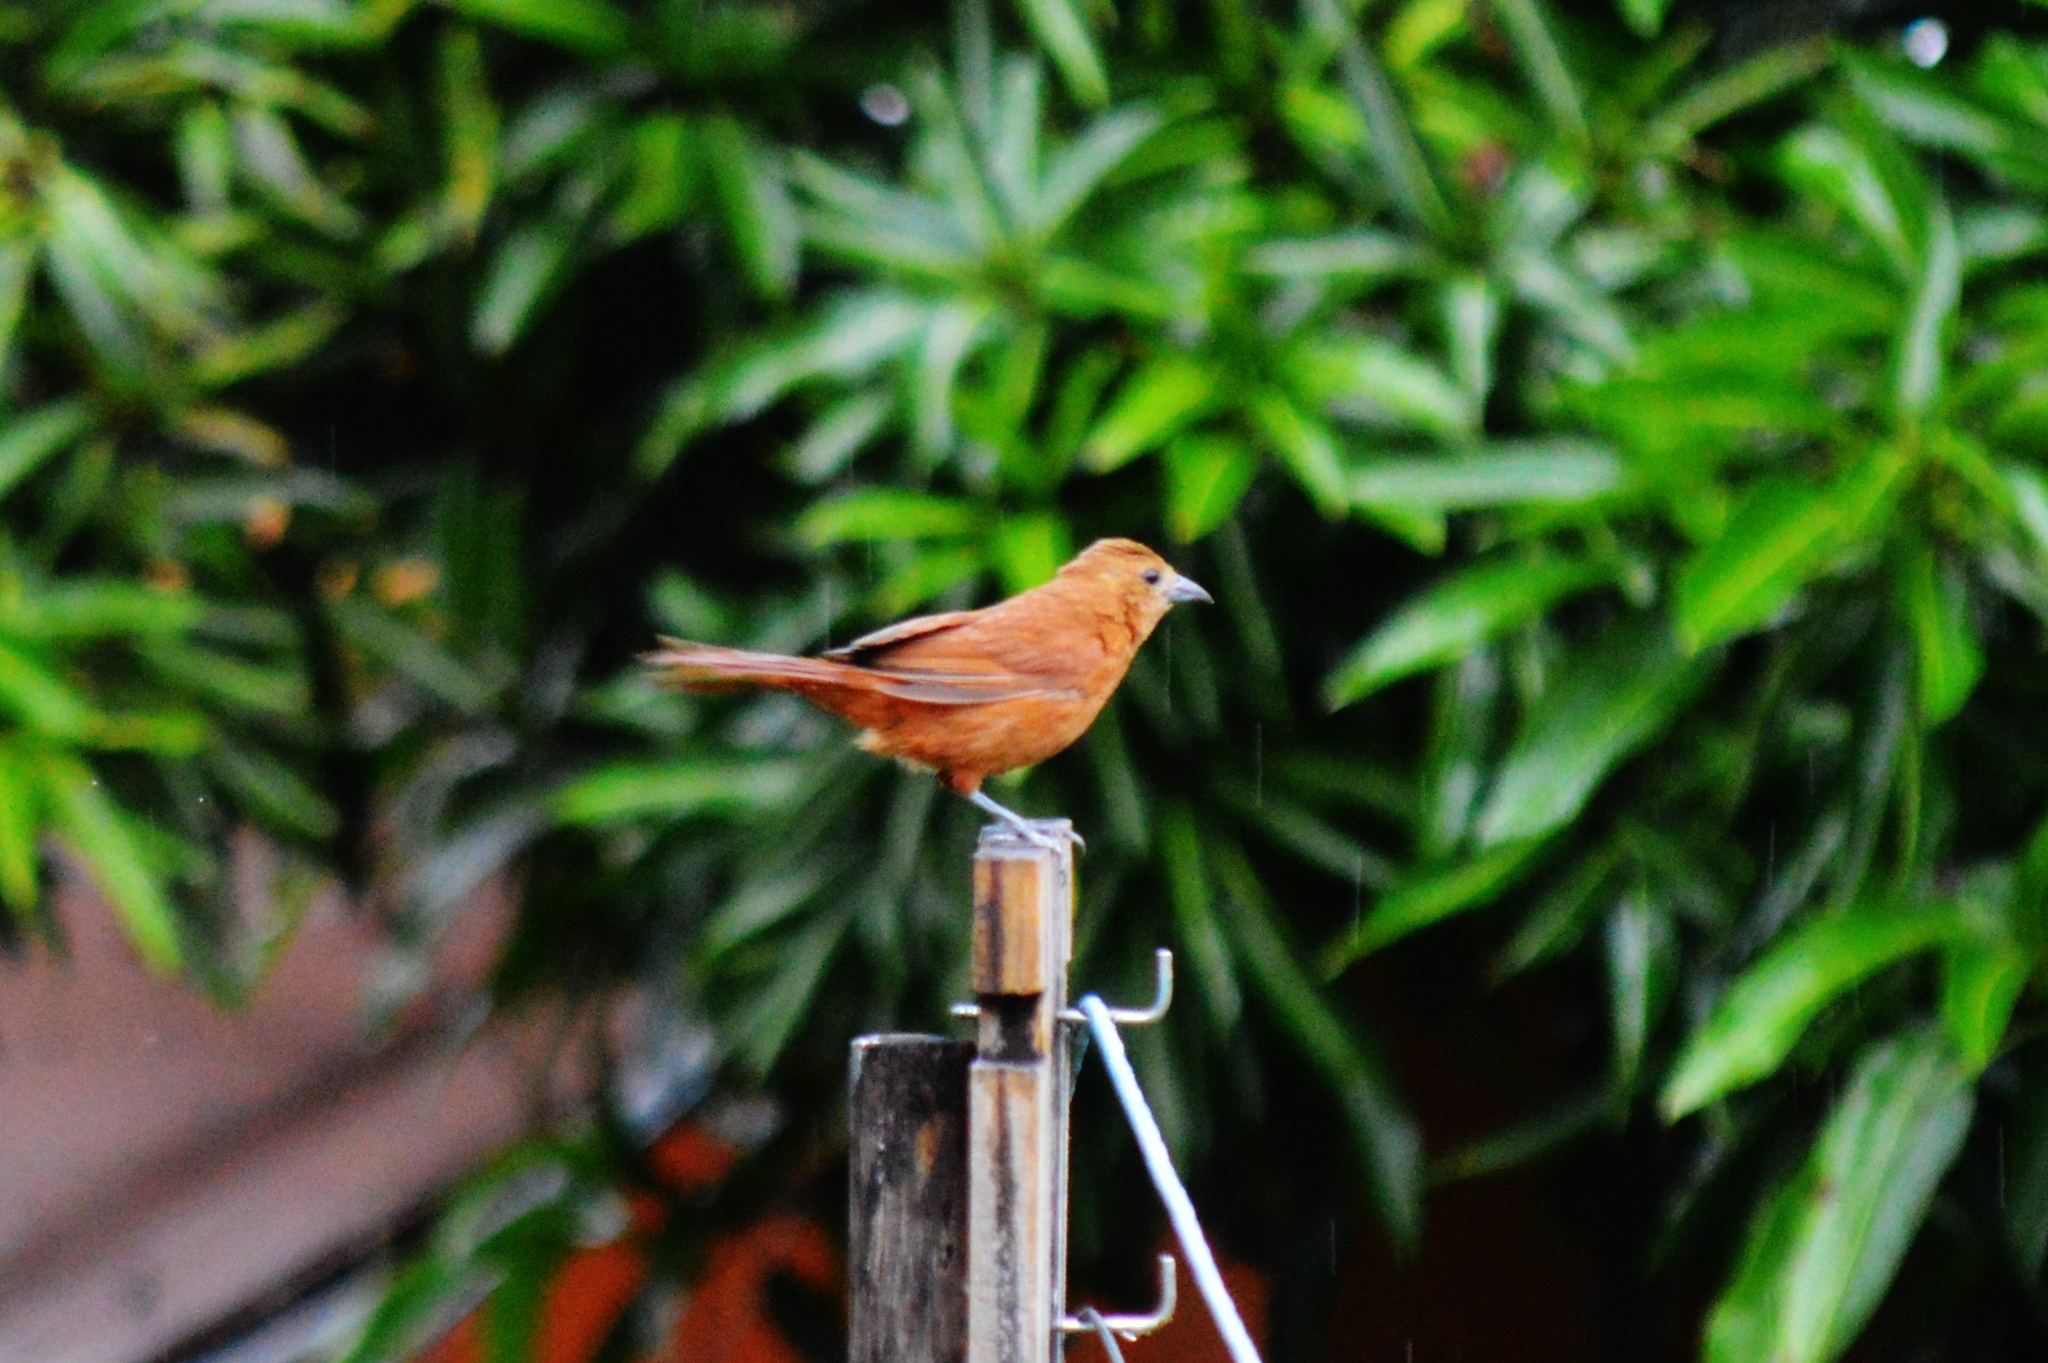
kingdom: Animalia
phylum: Chordata
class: Aves
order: Passeriformes
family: Thraupidae
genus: Tachyphonus
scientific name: Tachyphonus rufus
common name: White-lined tanager
